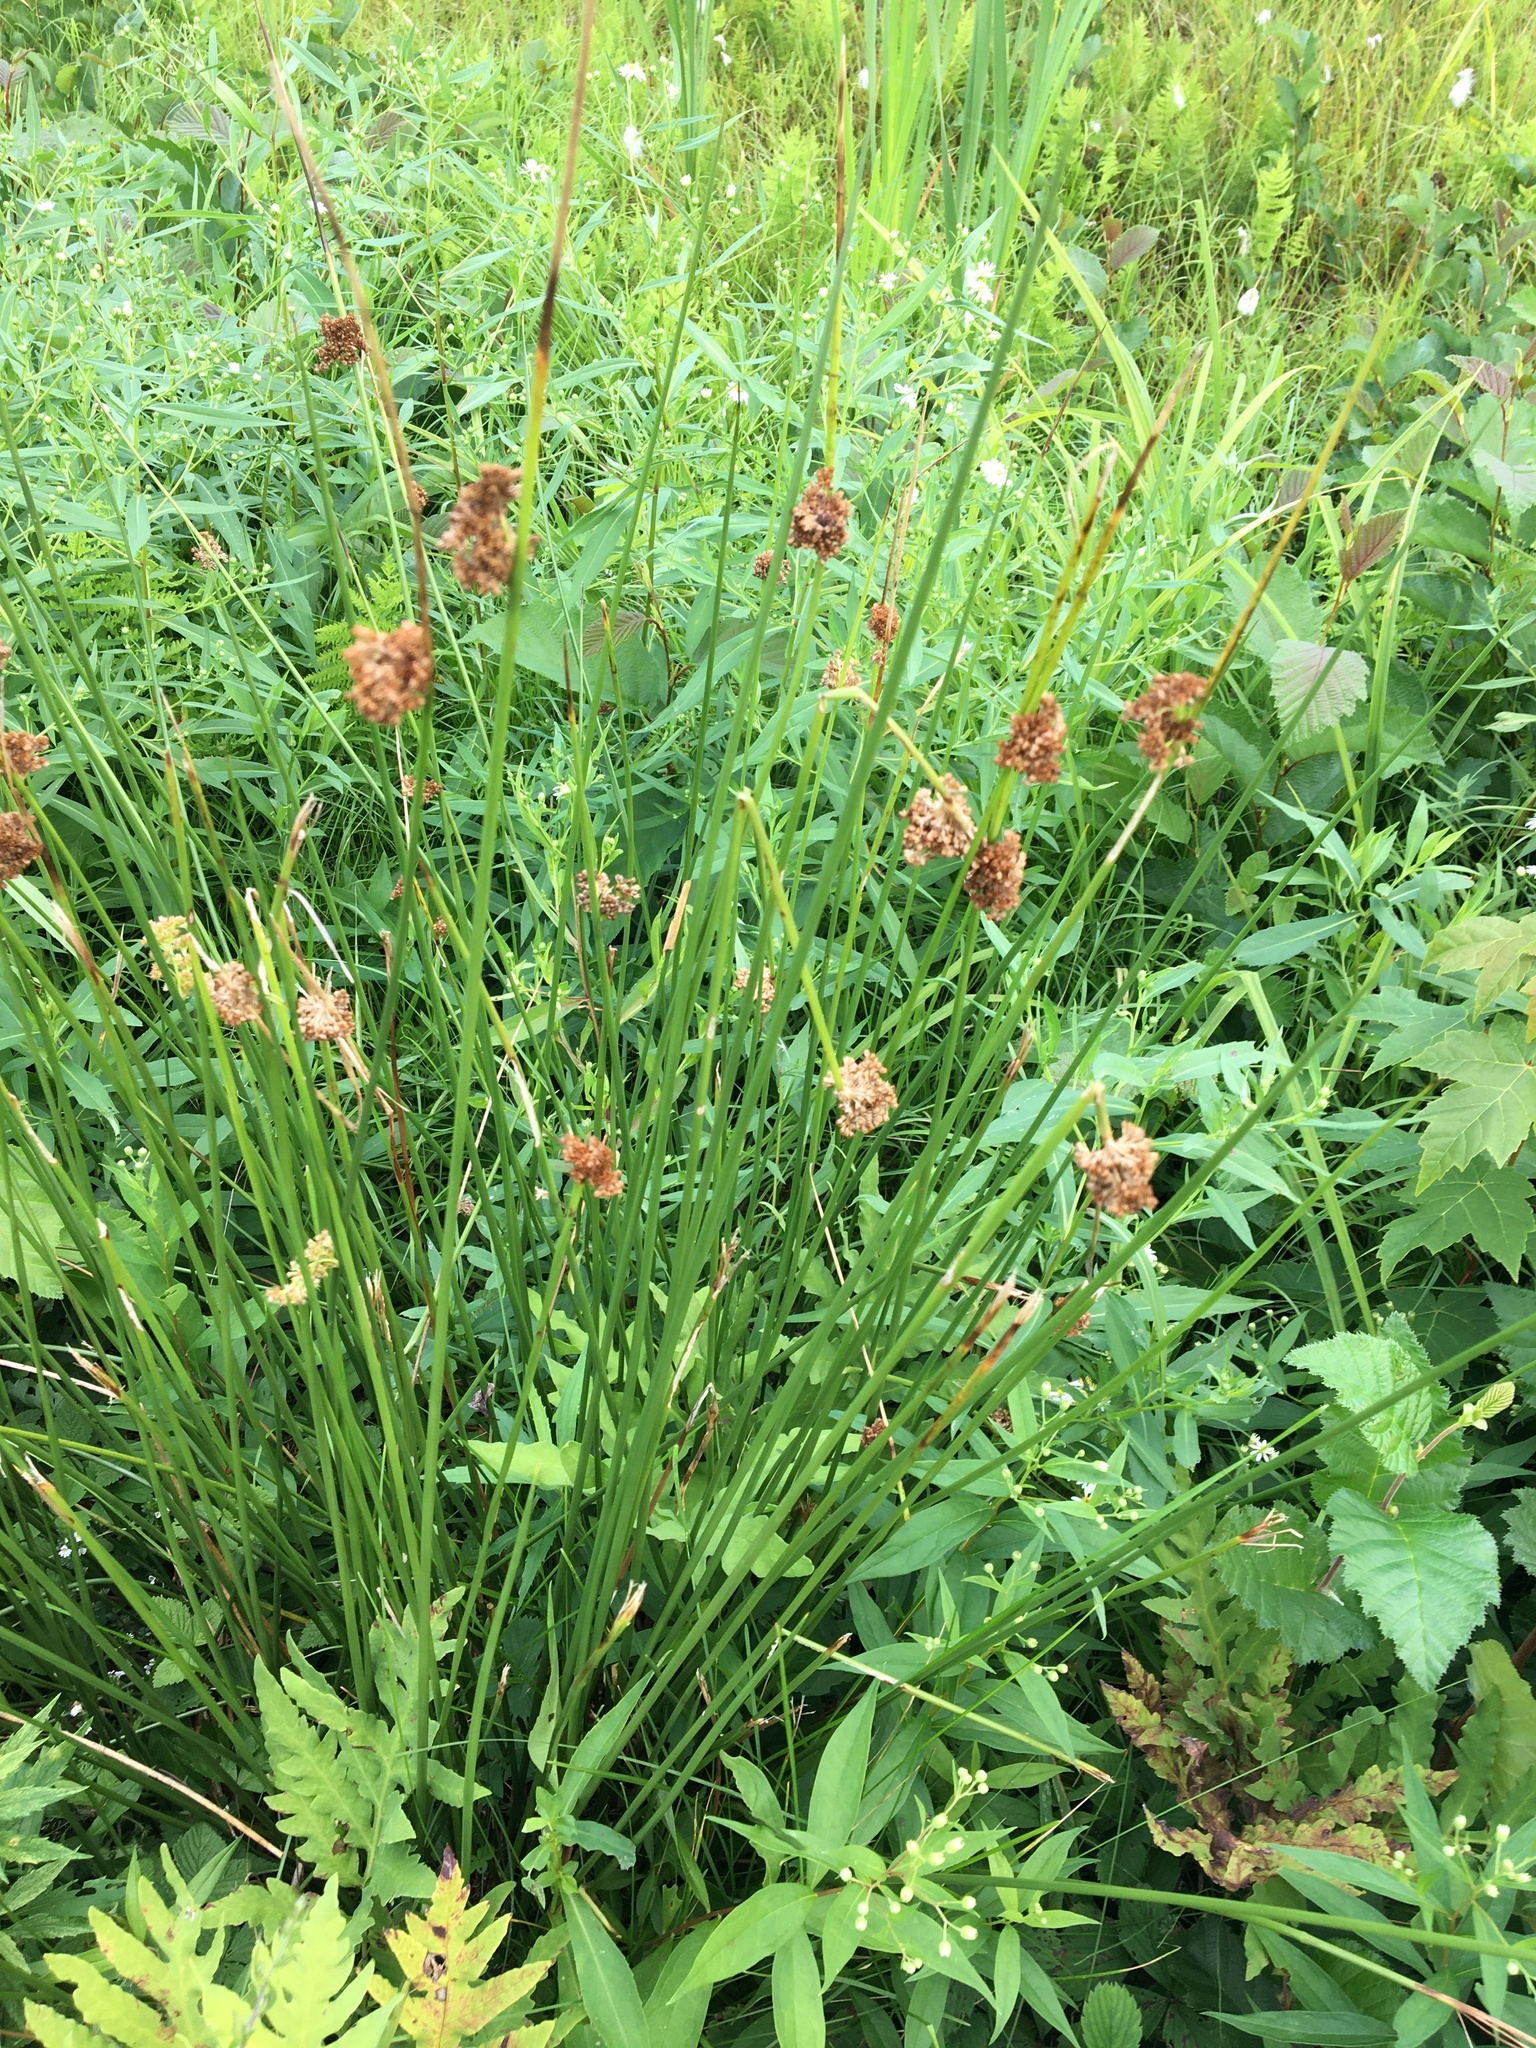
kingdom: Plantae
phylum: Tracheophyta
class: Liliopsida
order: Poales
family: Juncaceae
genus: Juncus
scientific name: Juncus effusus
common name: Soft rush
